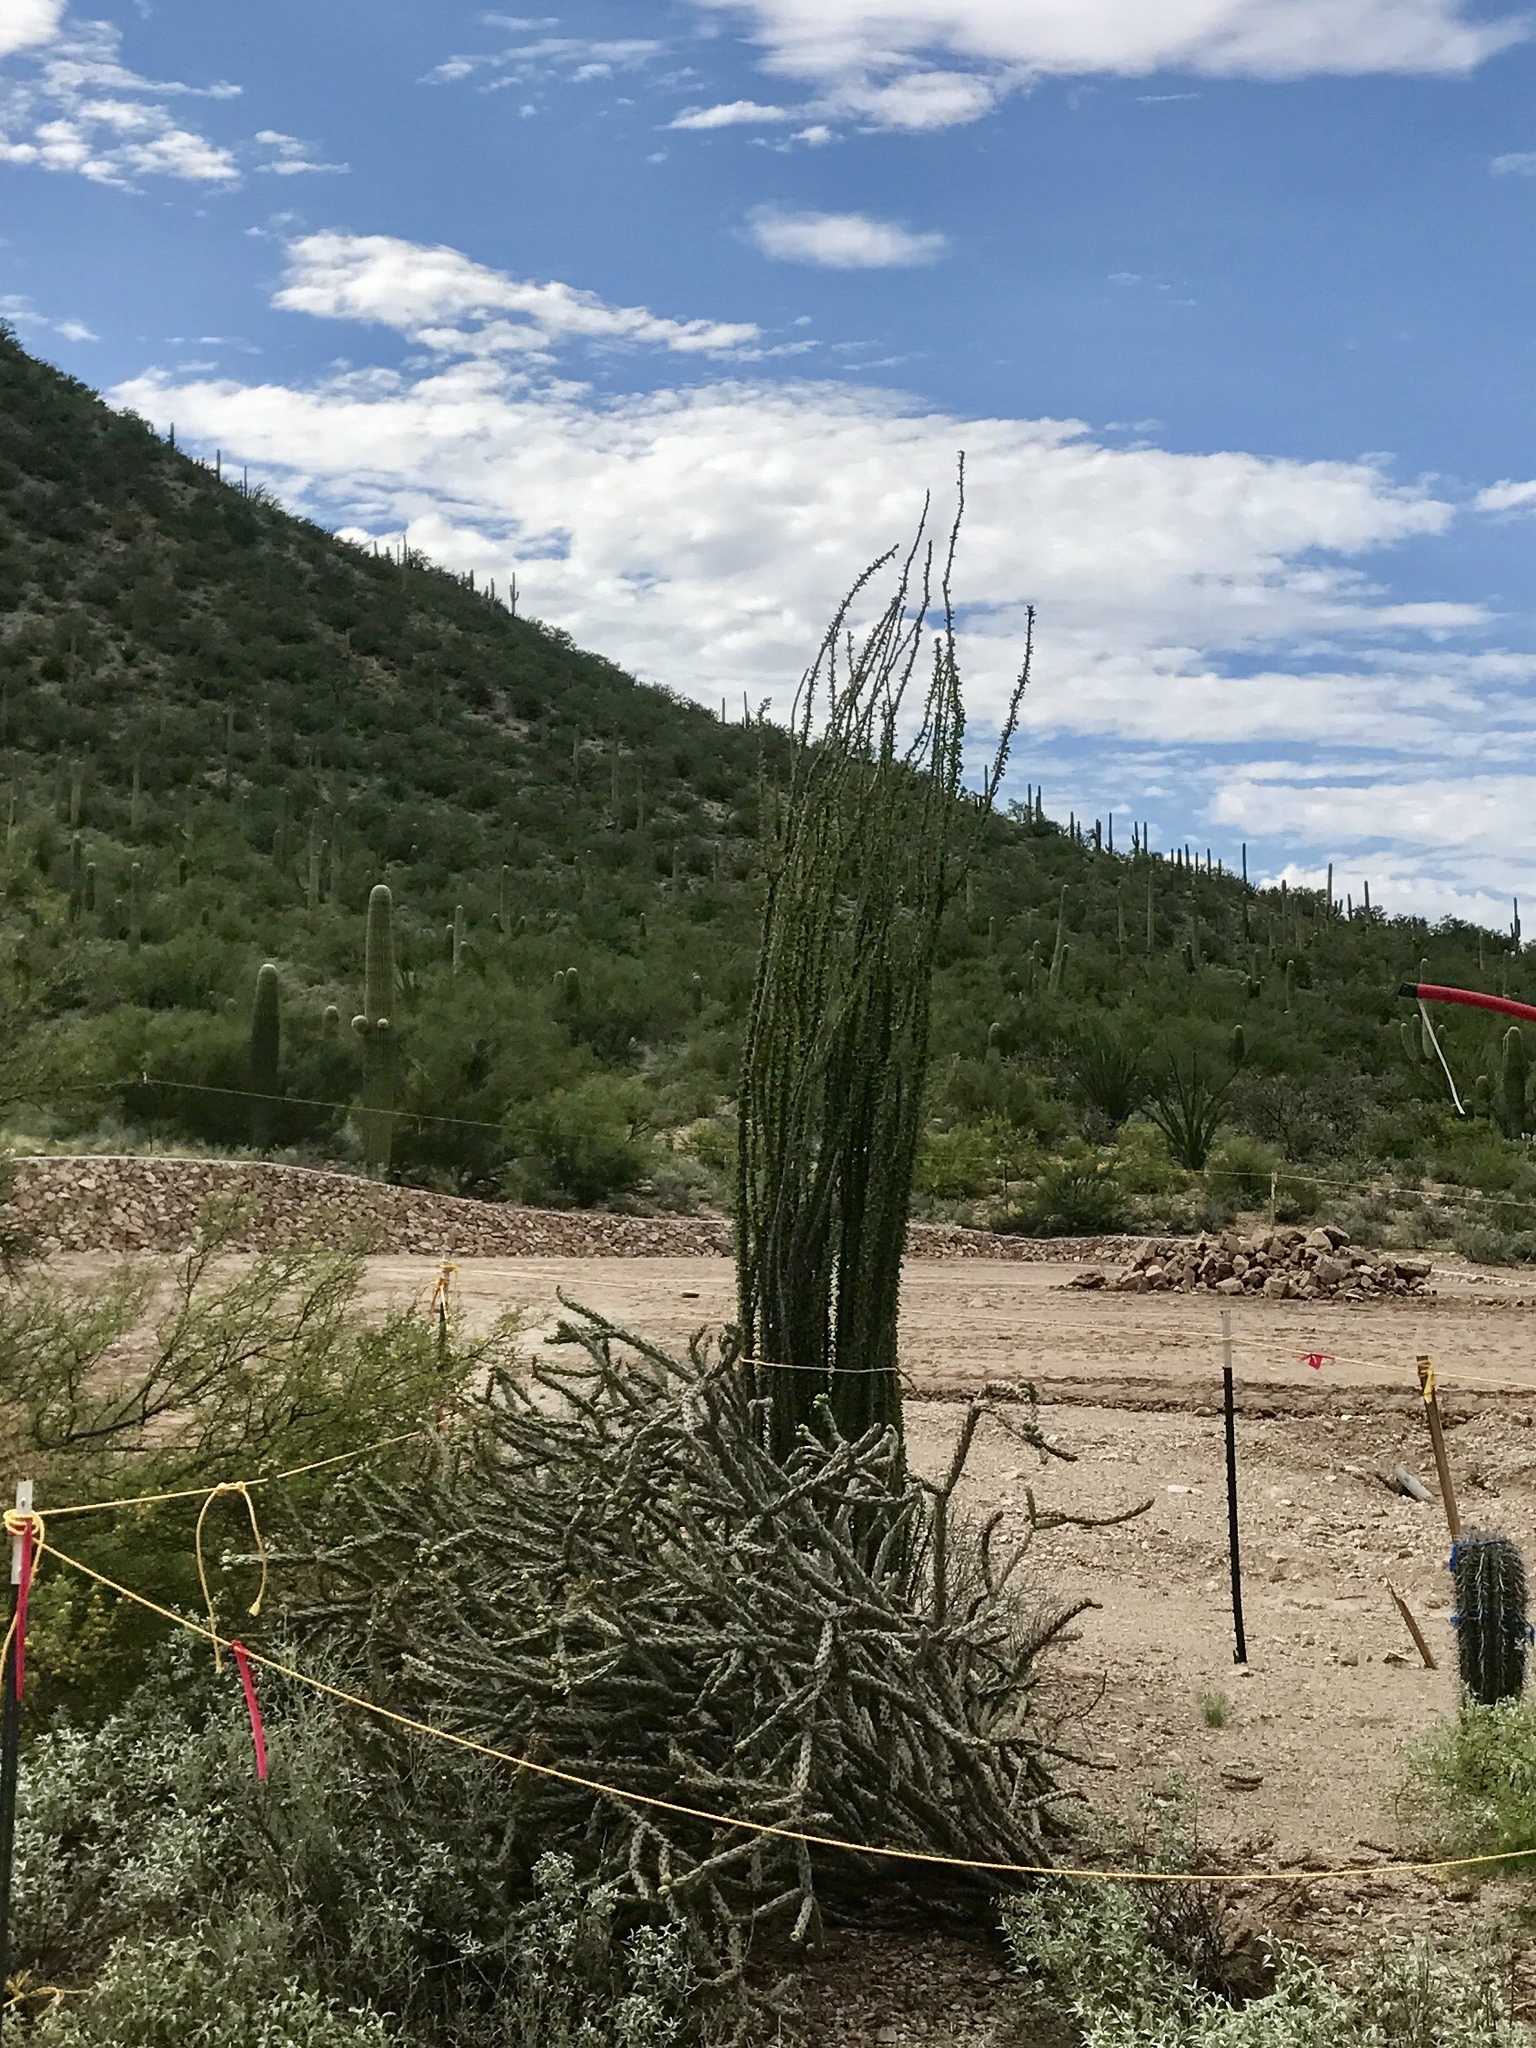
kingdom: Plantae
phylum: Tracheophyta
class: Magnoliopsida
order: Ericales
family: Fouquieriaceae
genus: Fouquieria
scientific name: Fouquieria splendens
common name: Vine-cactus
